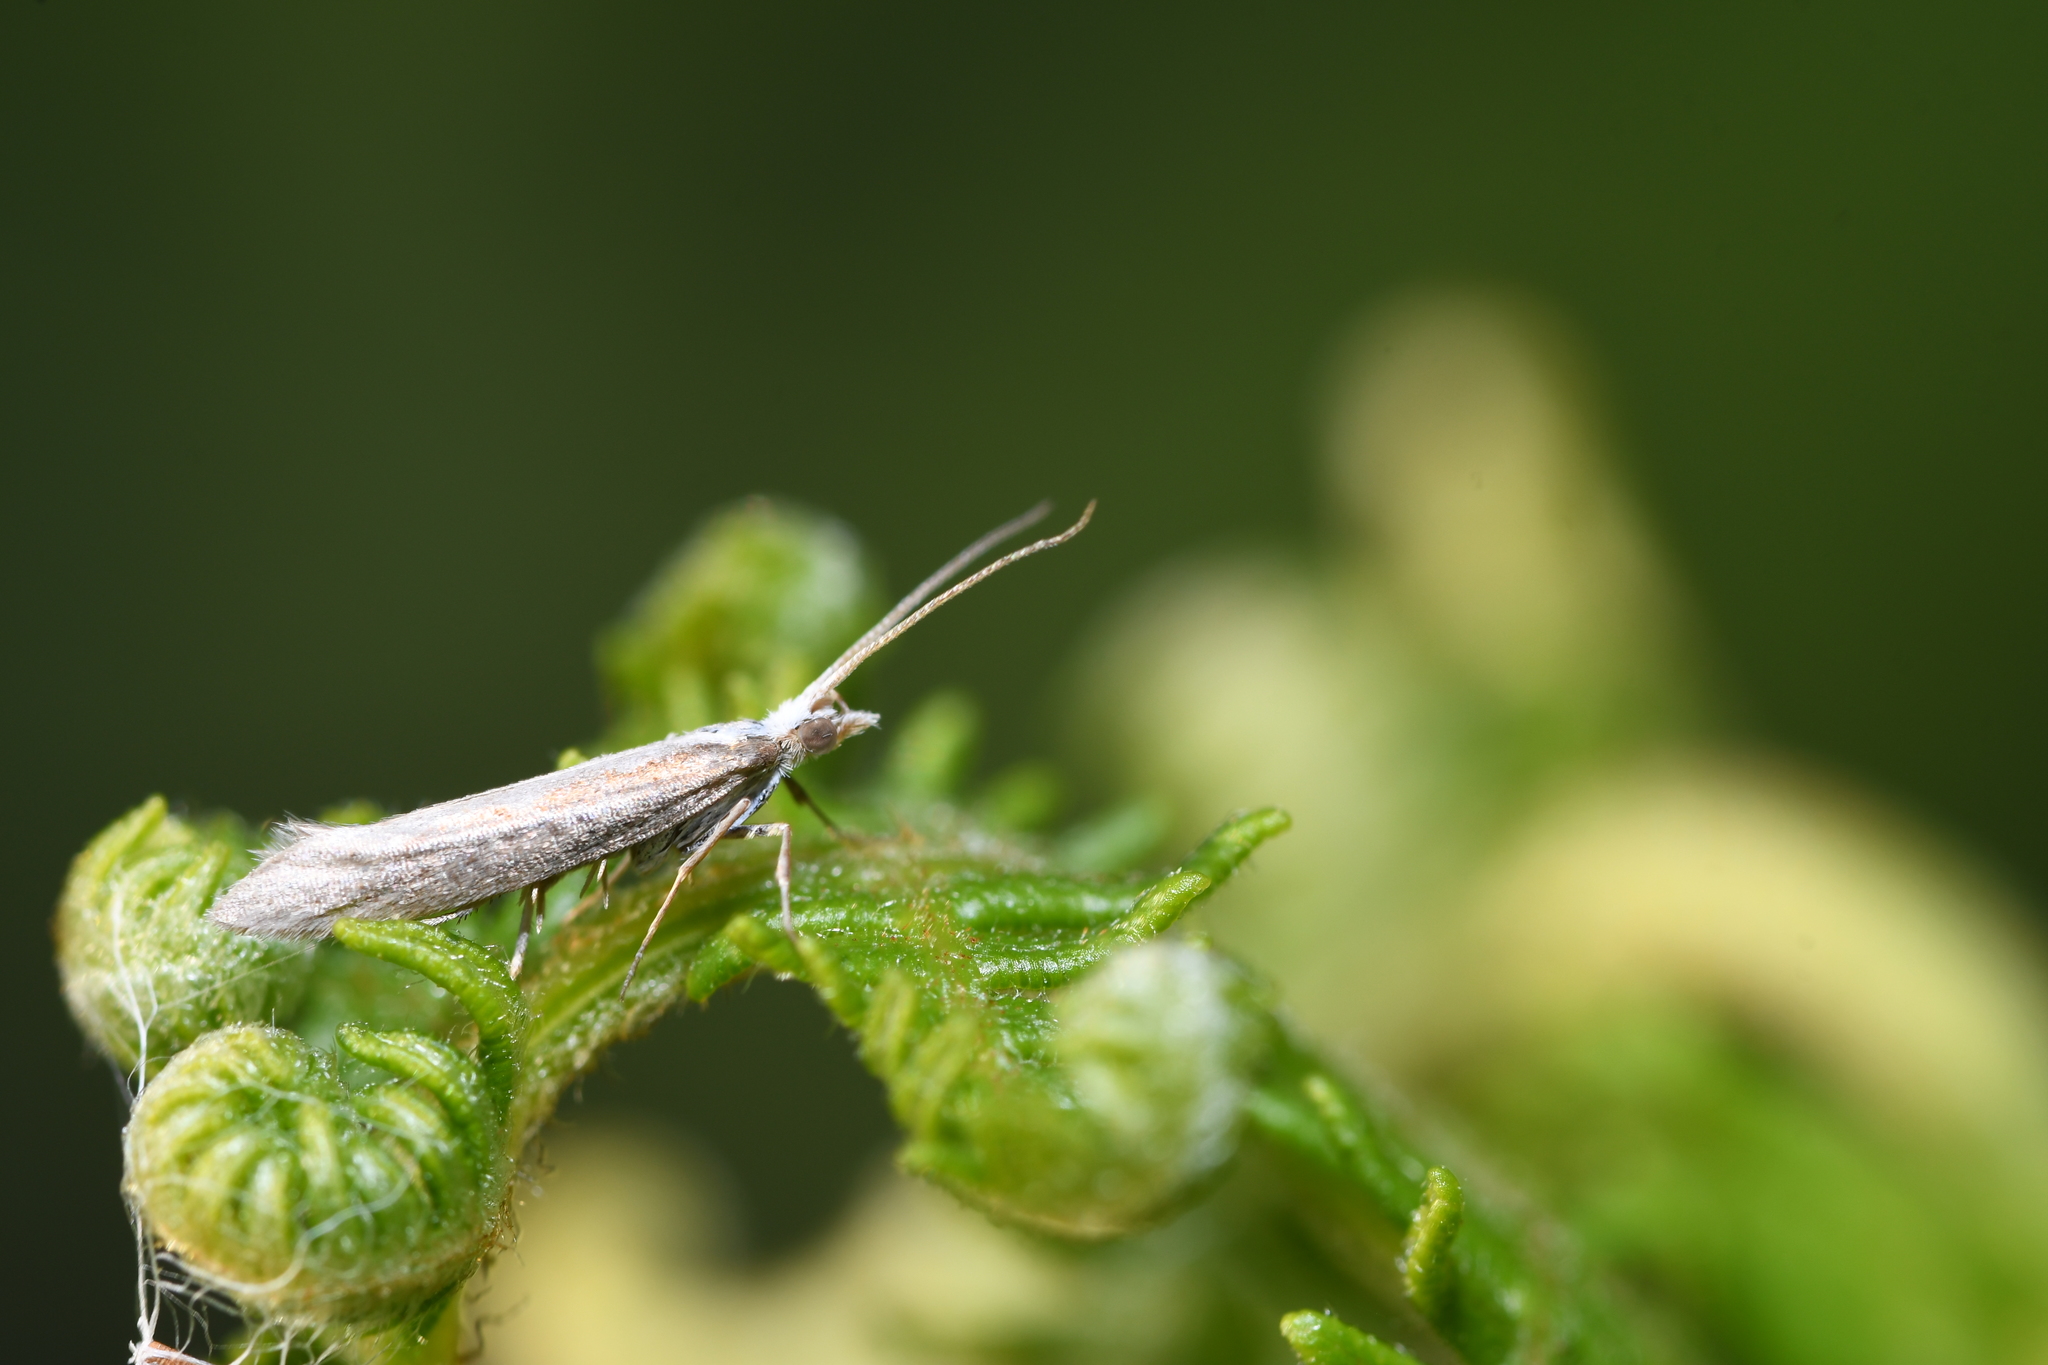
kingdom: Animalia
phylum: Arthropoda
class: Insecta
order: Lepidoptera
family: Plutellidae
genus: Plutella
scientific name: Plutella xylostella
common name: Diamond-back moth
